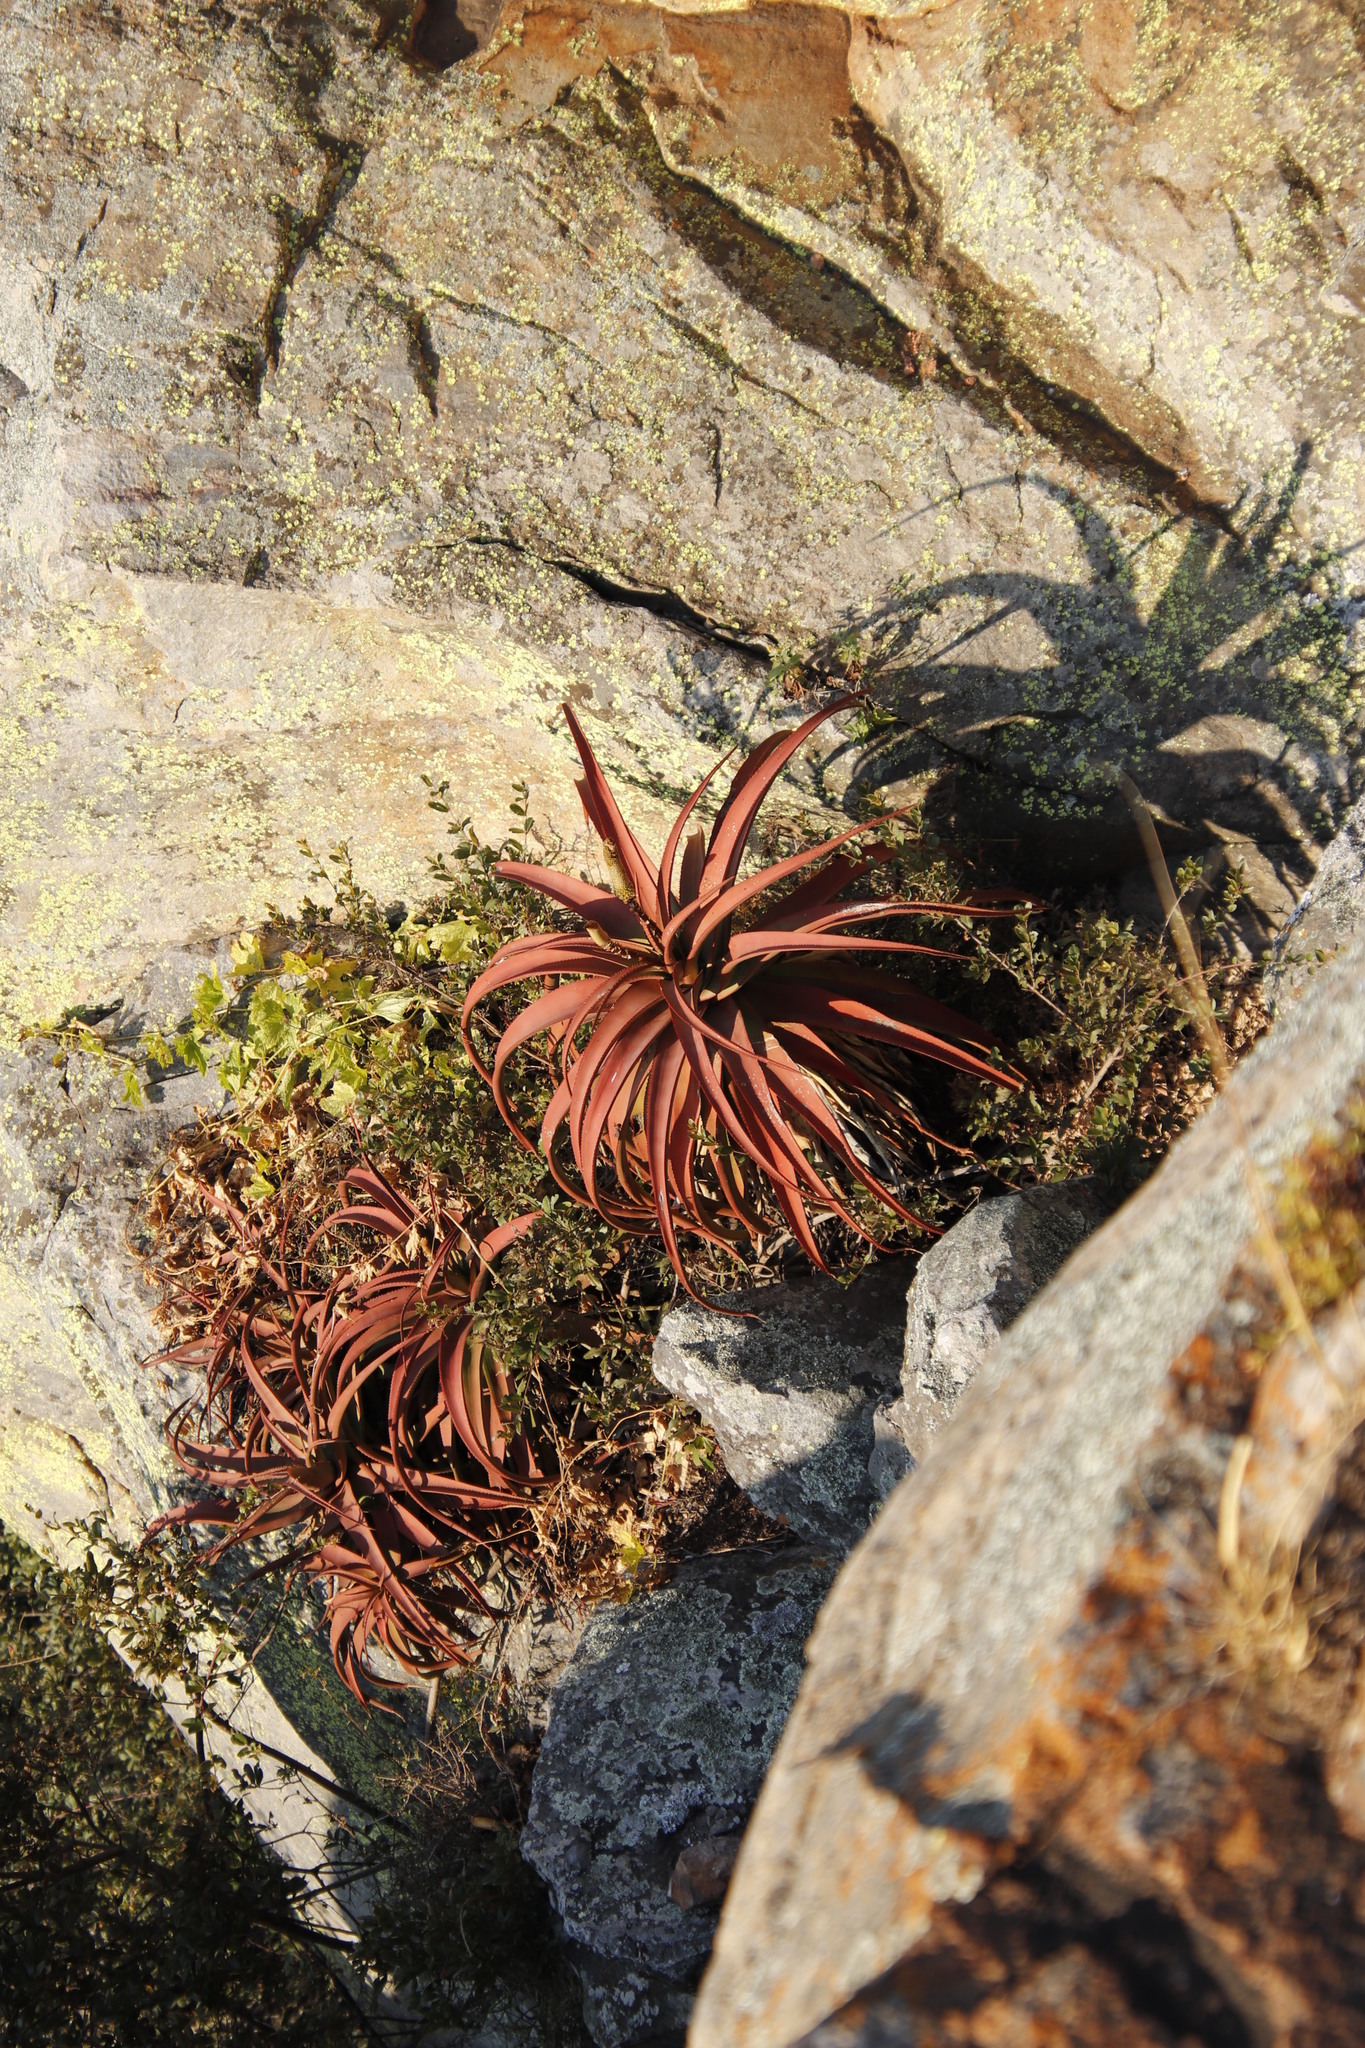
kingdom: Plantae
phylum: Tracheophyta
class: Liliopsida
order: Asparagales
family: Asphodelaceae
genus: Aloe
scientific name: Aloe spicata
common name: Gazaland aloe
